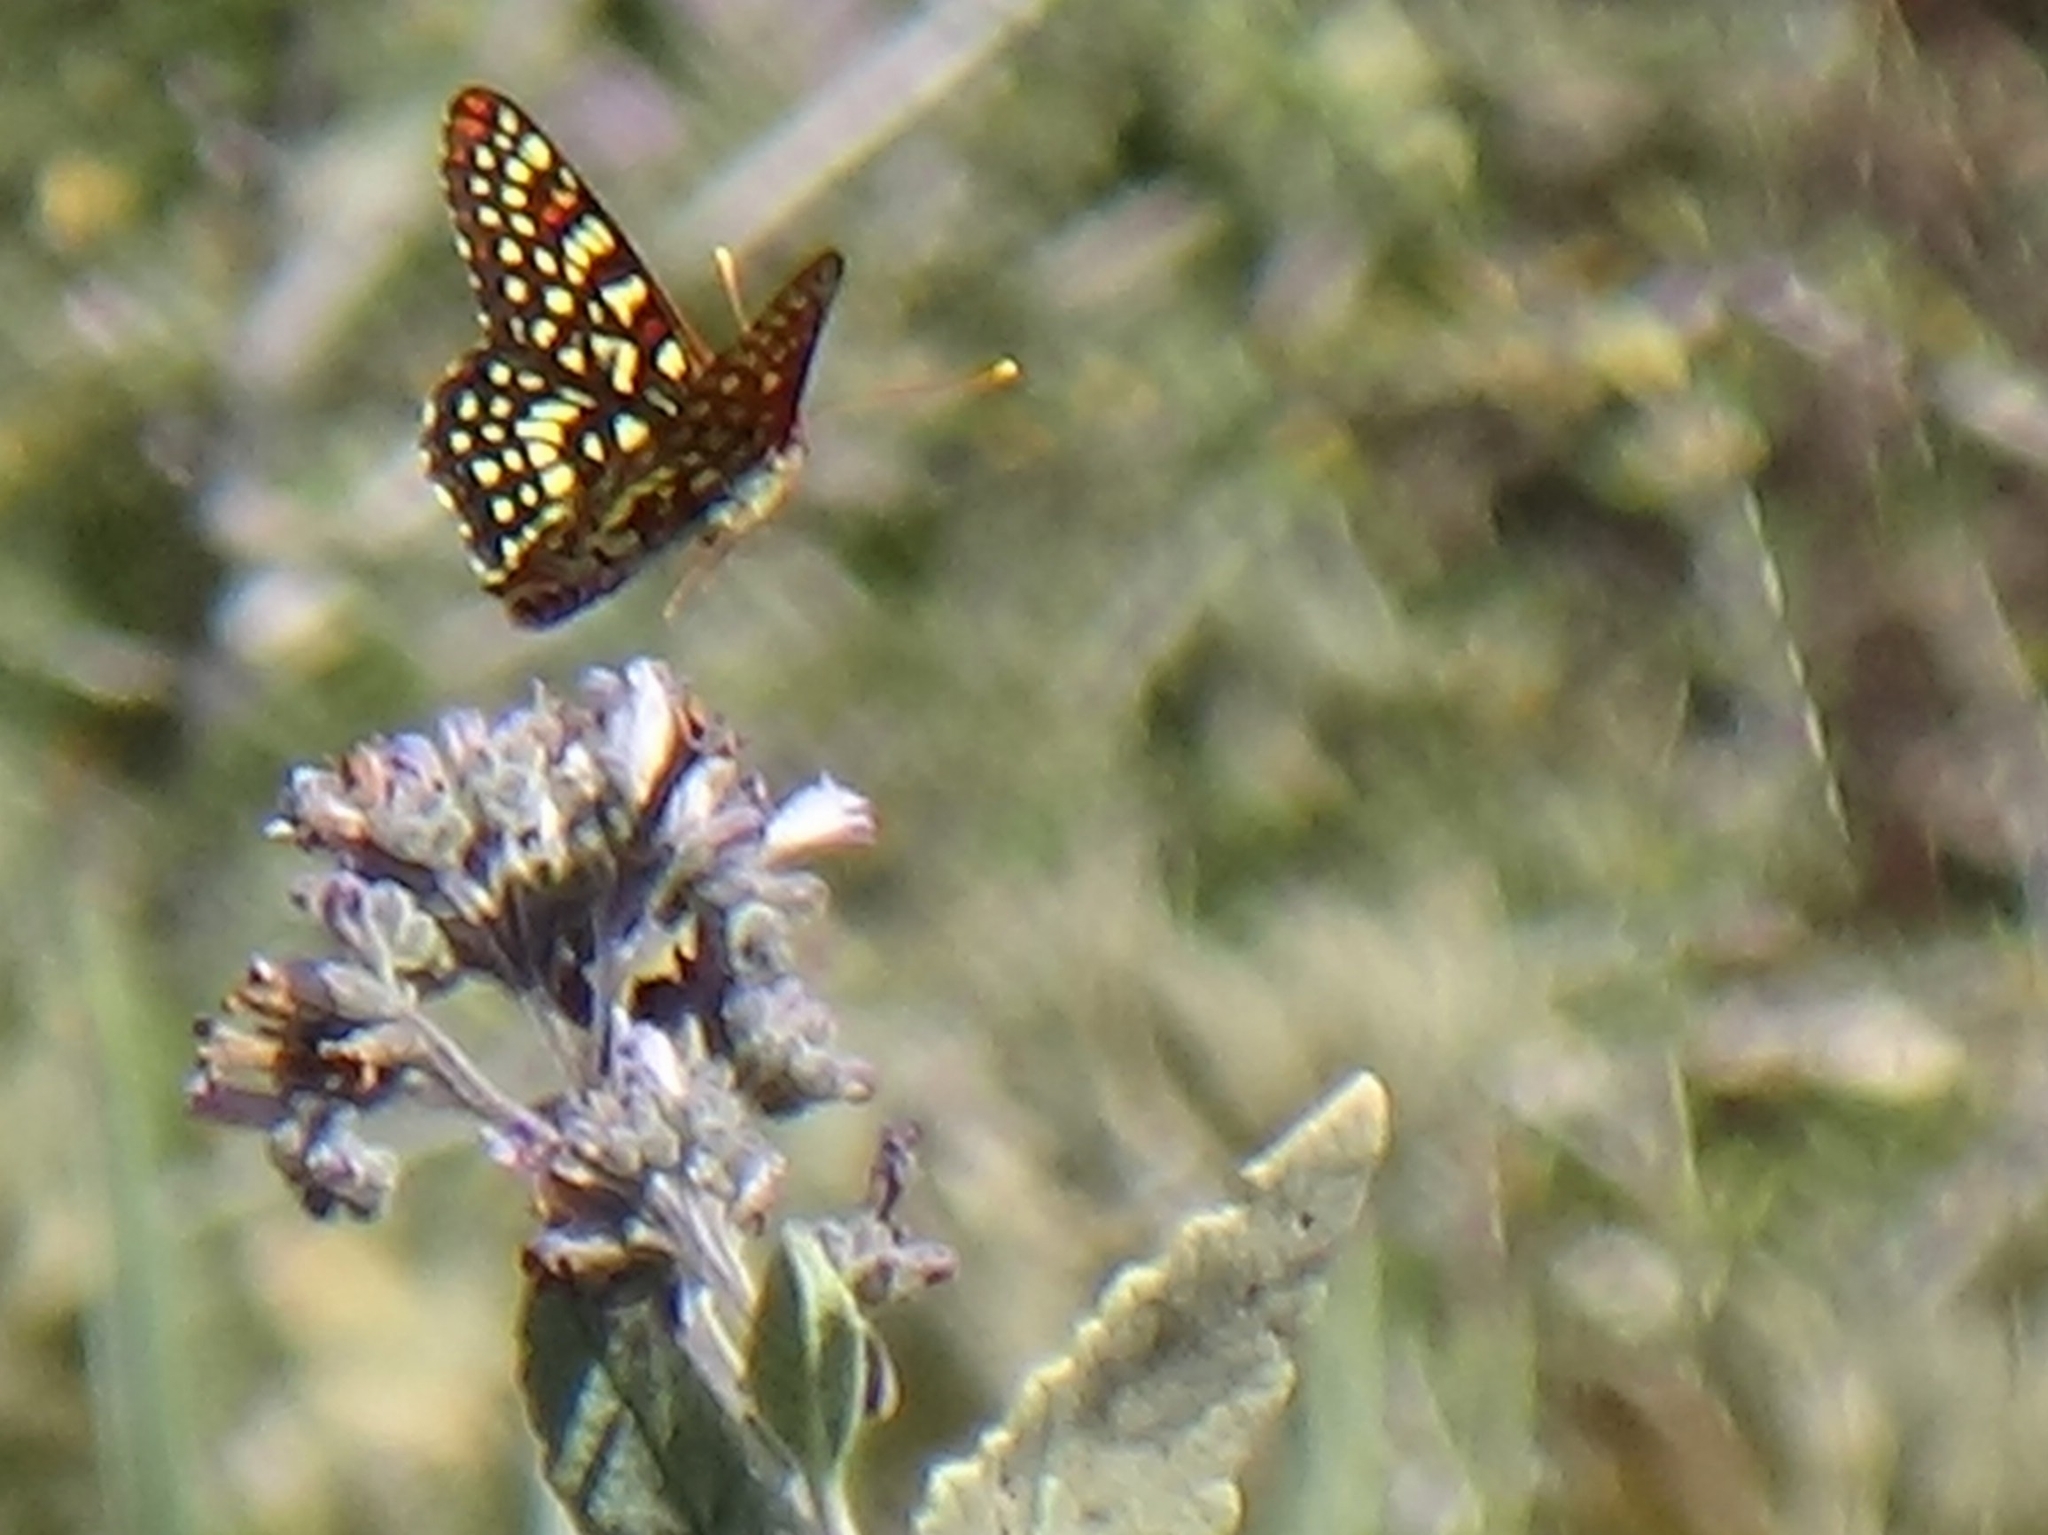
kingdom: Animalia
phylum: Arthropoda
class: Insecta
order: Lepidoptera
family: Nymphalidae
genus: Occidryas
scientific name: Occidryas chalcedona
